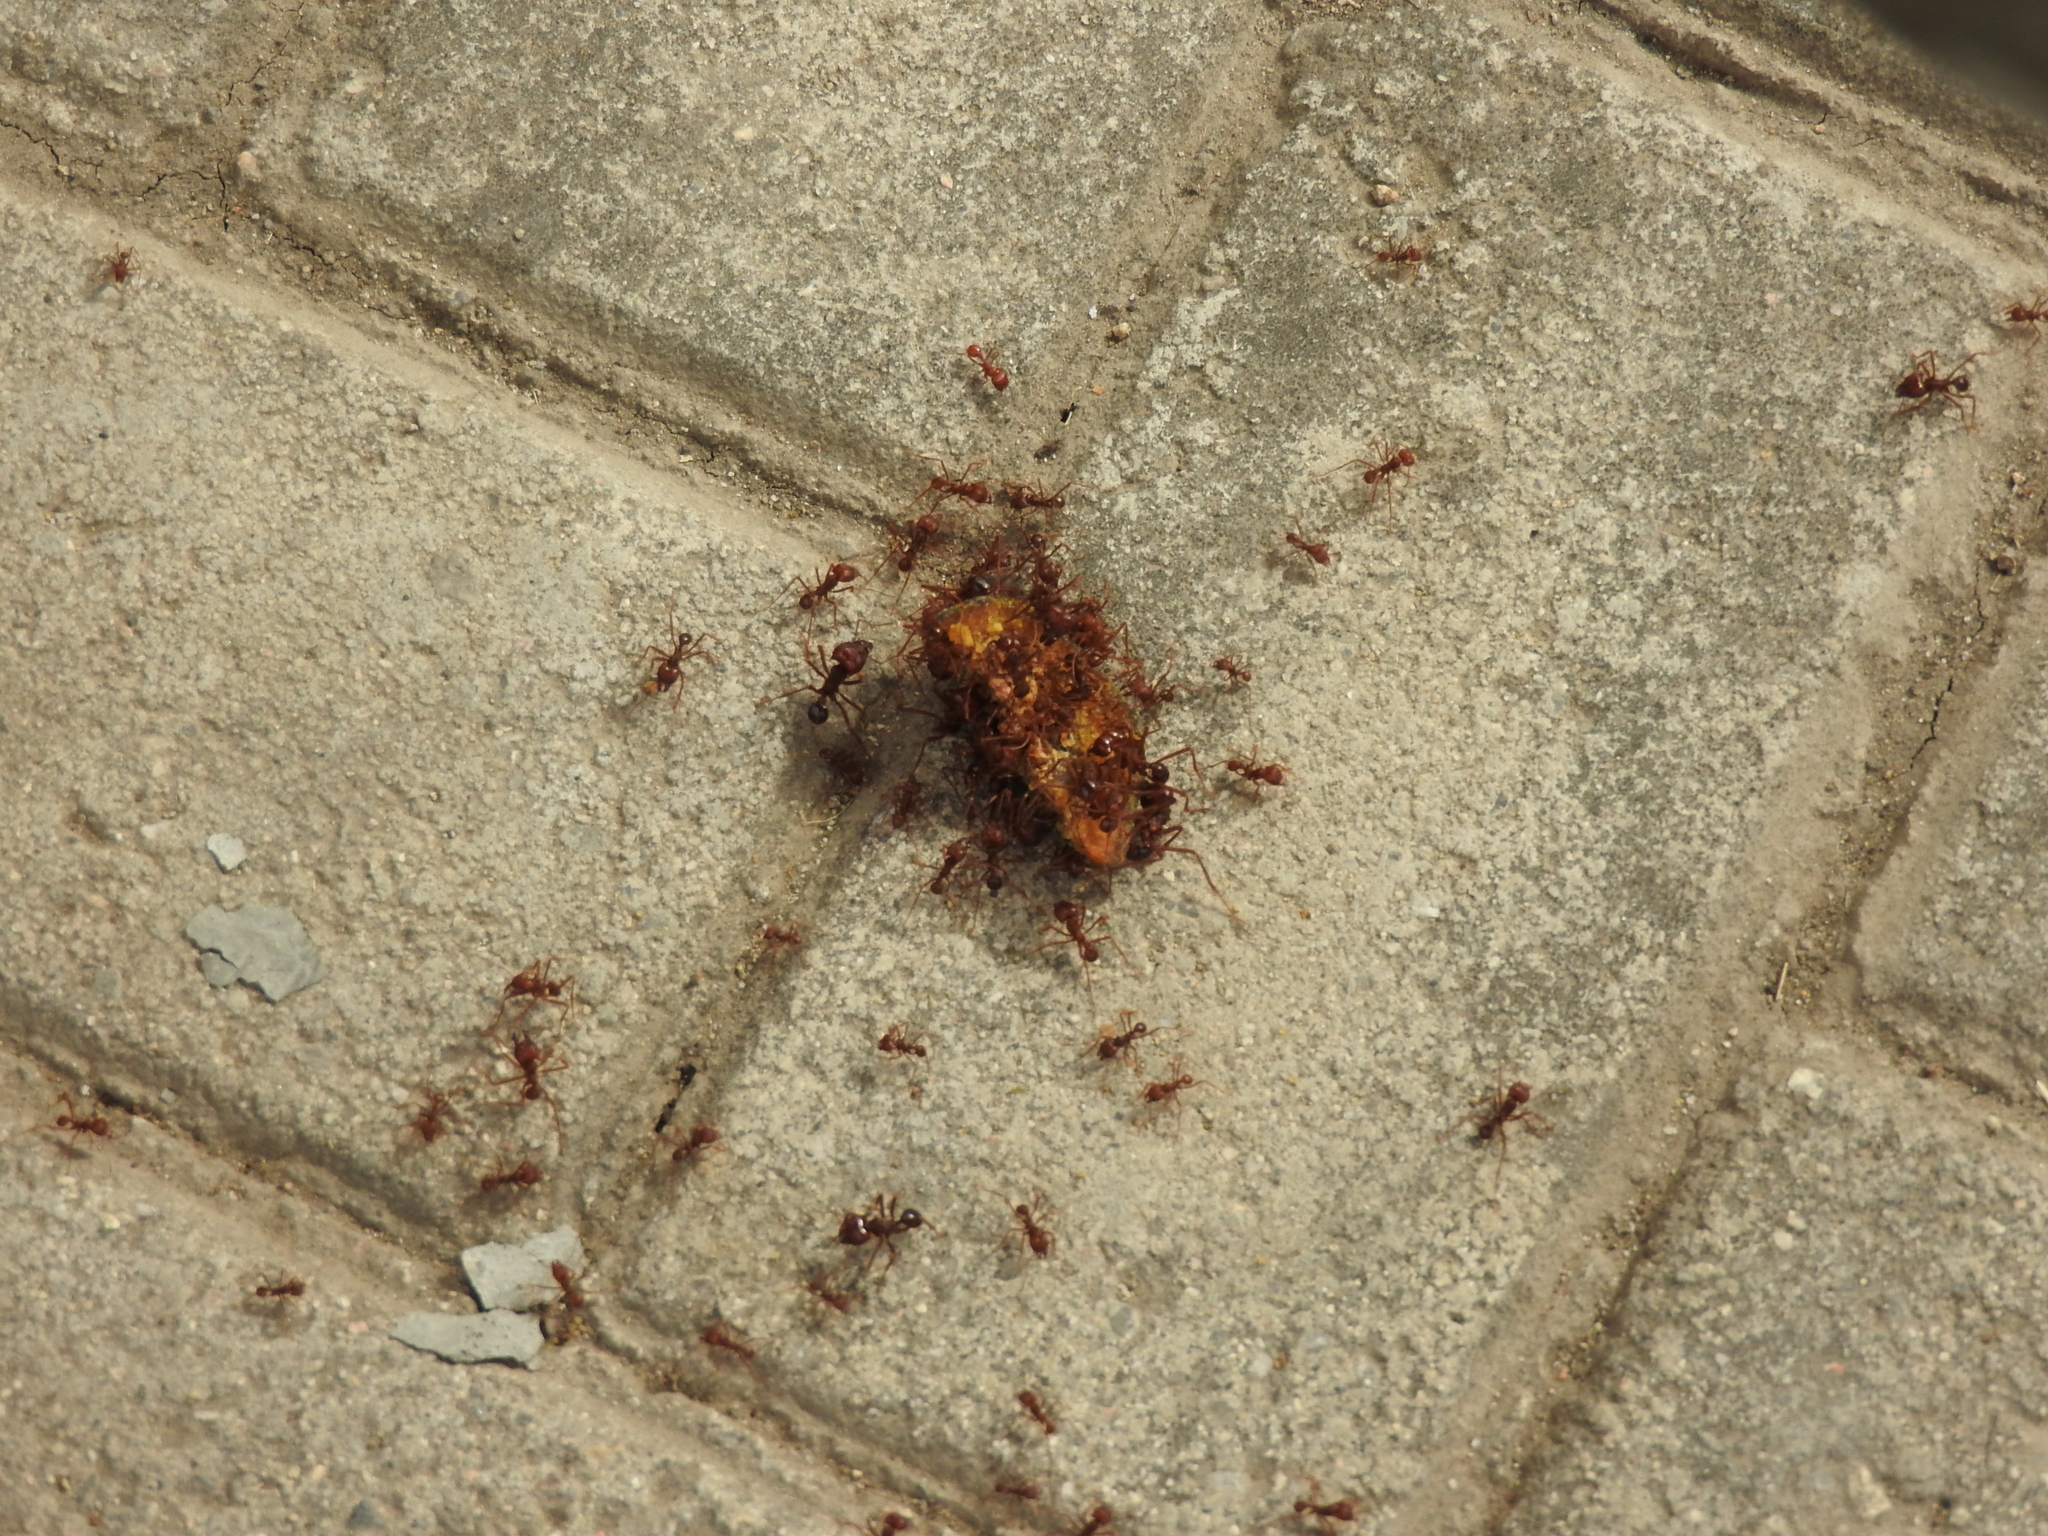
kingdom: Animalia
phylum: Arthropoda
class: Insecta
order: Hymenoptera
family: Formicidae
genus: Atta
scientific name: Atta mexicana
